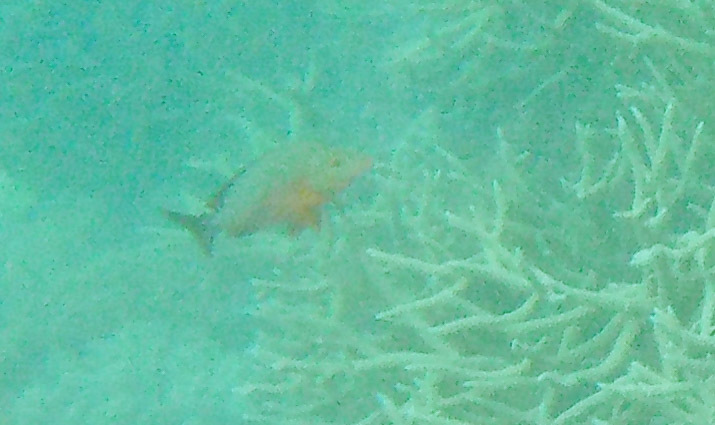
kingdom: Animalia
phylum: Chordata
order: Perciformes
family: Lutjanidae
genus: Lutjanus
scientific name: Lutjanus gibbus
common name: Humpback snapper
